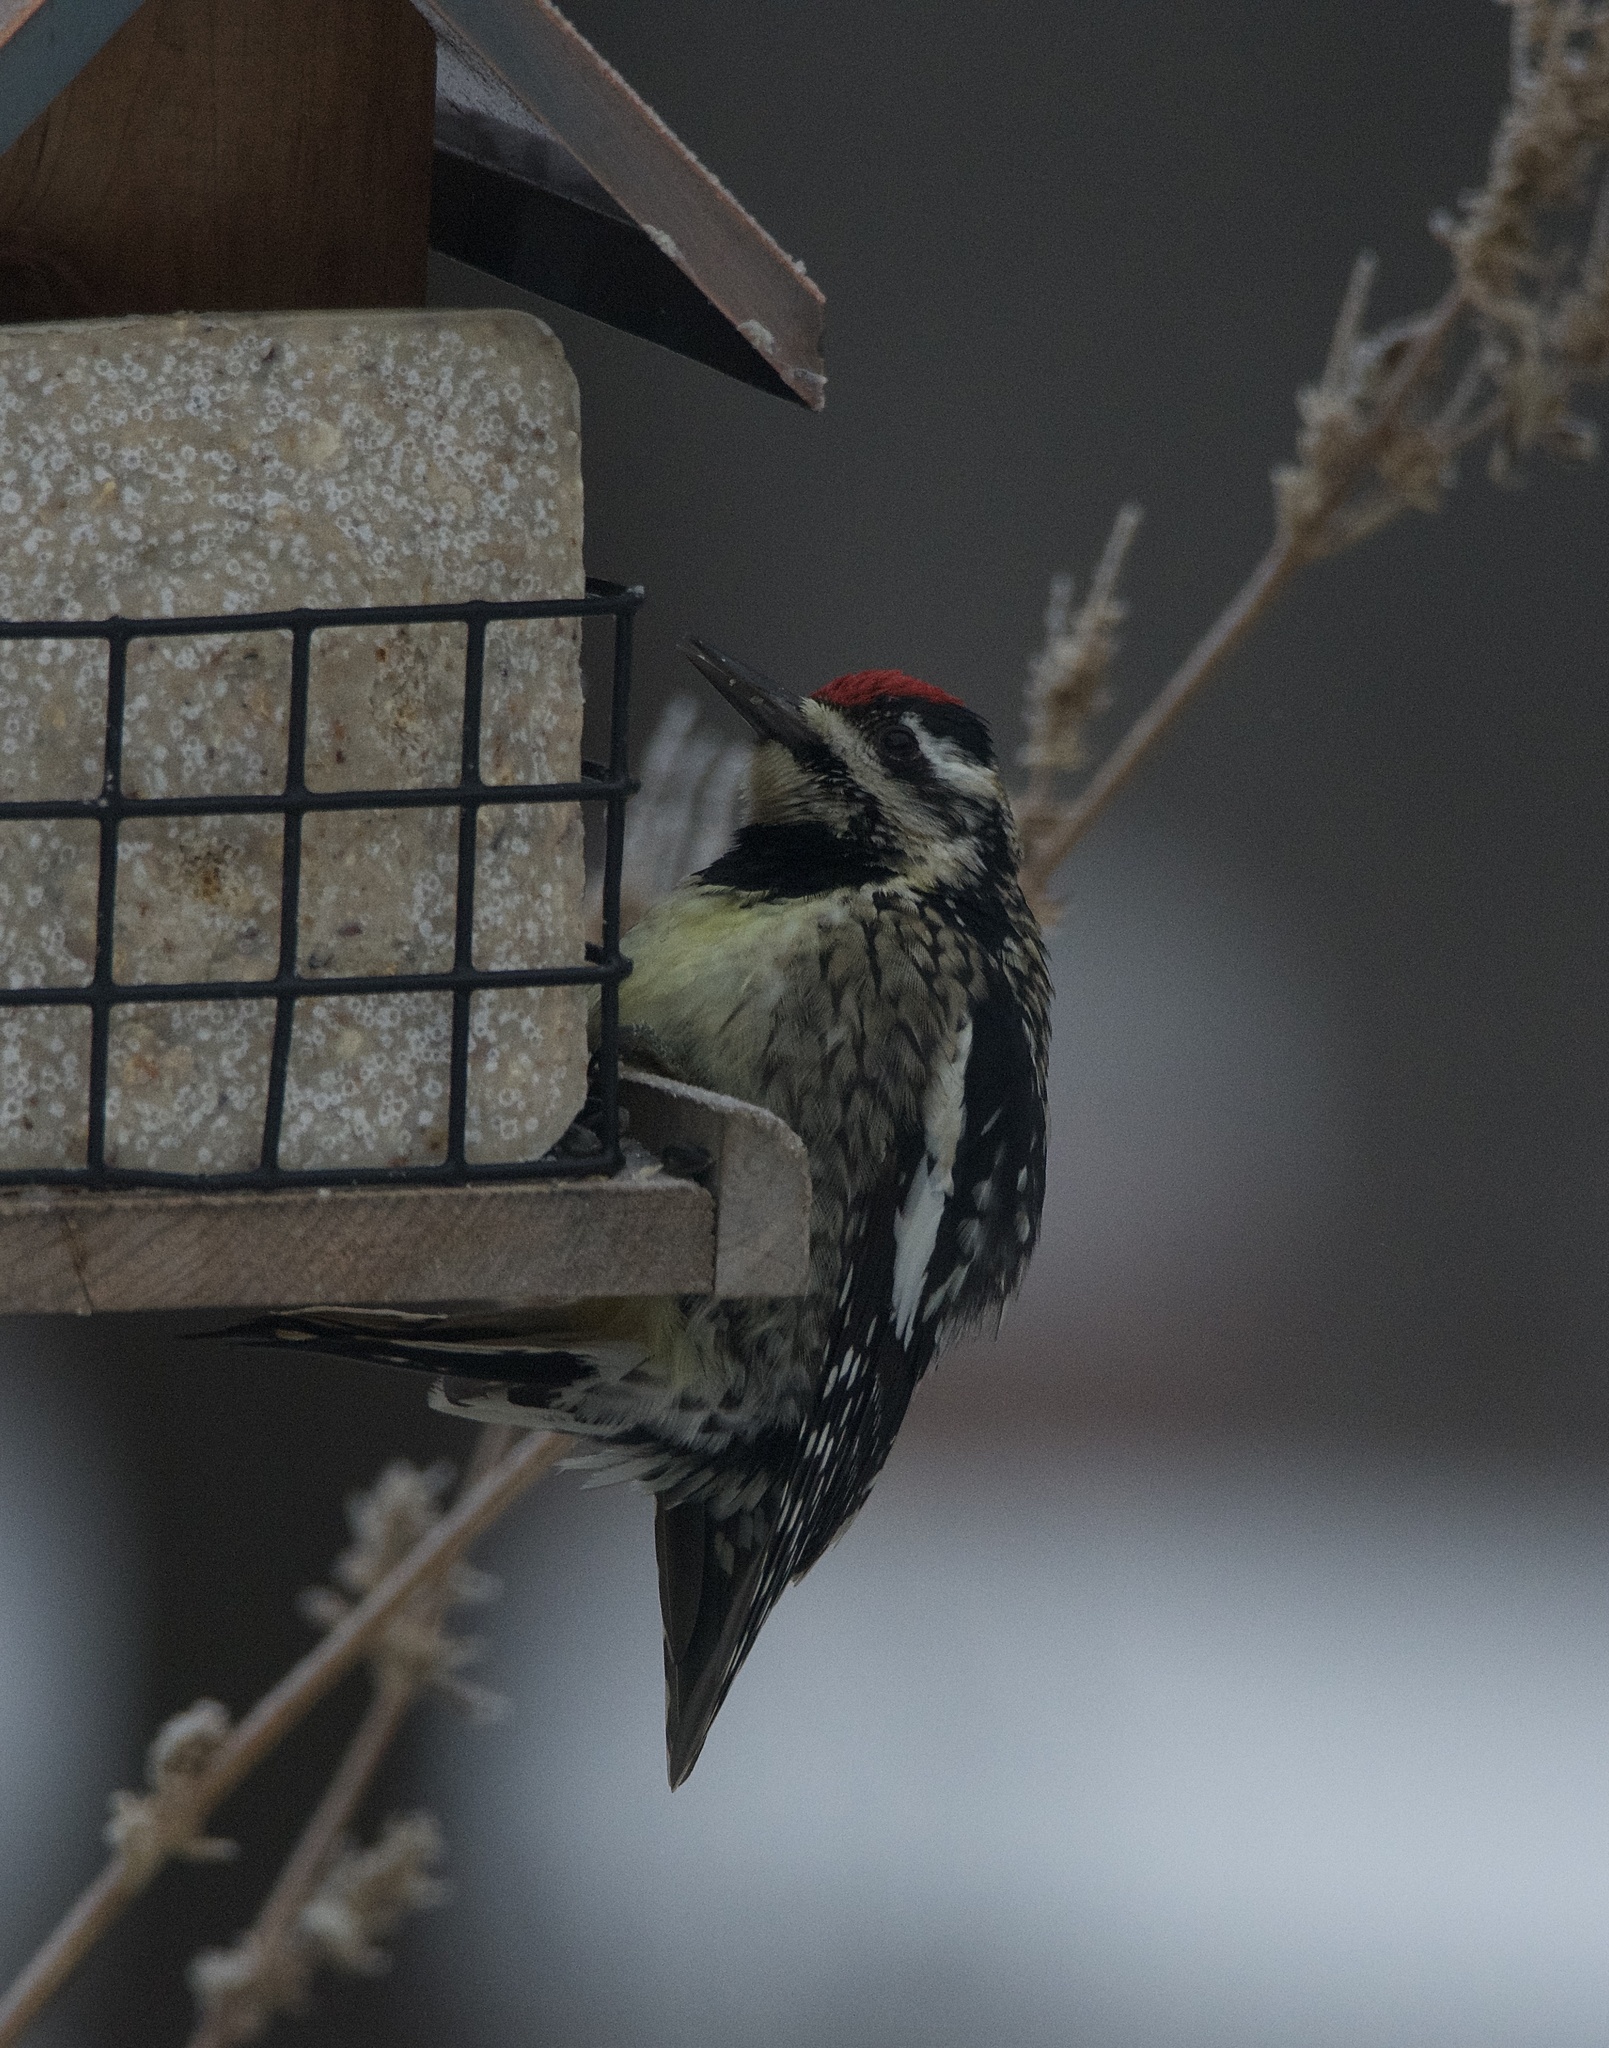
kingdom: Animalia
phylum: Chordata
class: Aves
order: Piciformes
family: Picidae
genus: Sphyrapicus
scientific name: Sphyrapicus varius
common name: Yellow-bellied sapsucker
